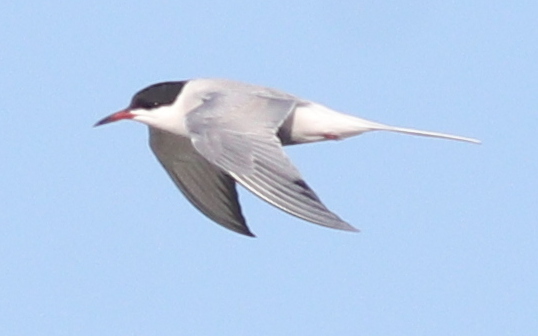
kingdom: Animalia
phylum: Chordata
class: Aves
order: Charadriiformes
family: Laridae
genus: Sterna
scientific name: Sterna hirundo
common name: Common tern
